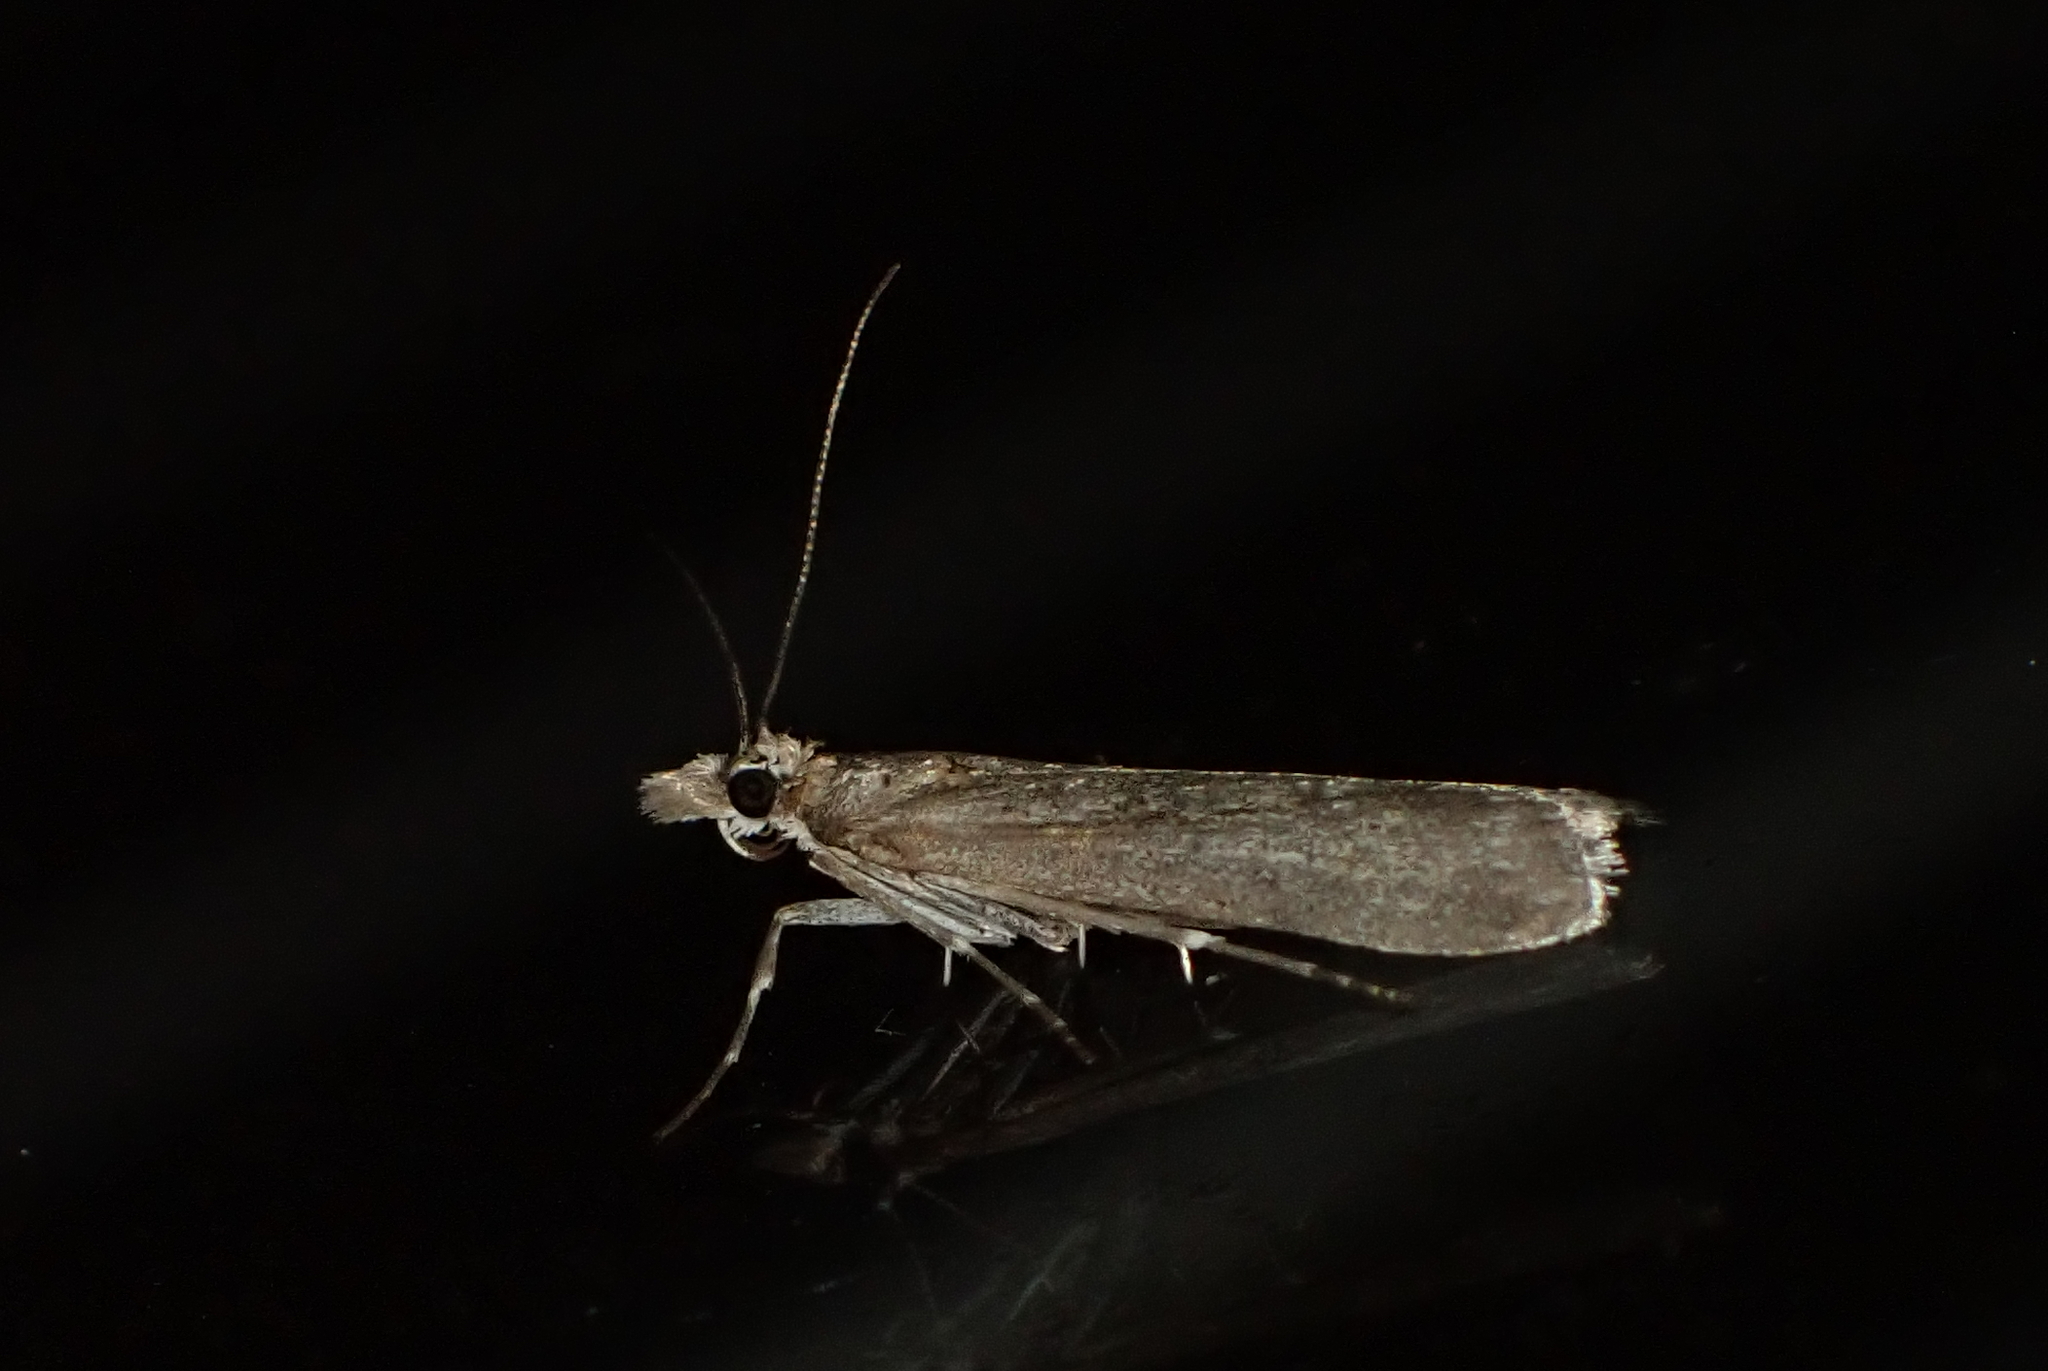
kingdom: Animalia
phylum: Arthropoda
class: Insecta
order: Lepidoptera
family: Crambidae
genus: Eudonia
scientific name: Eudonia leptalea
